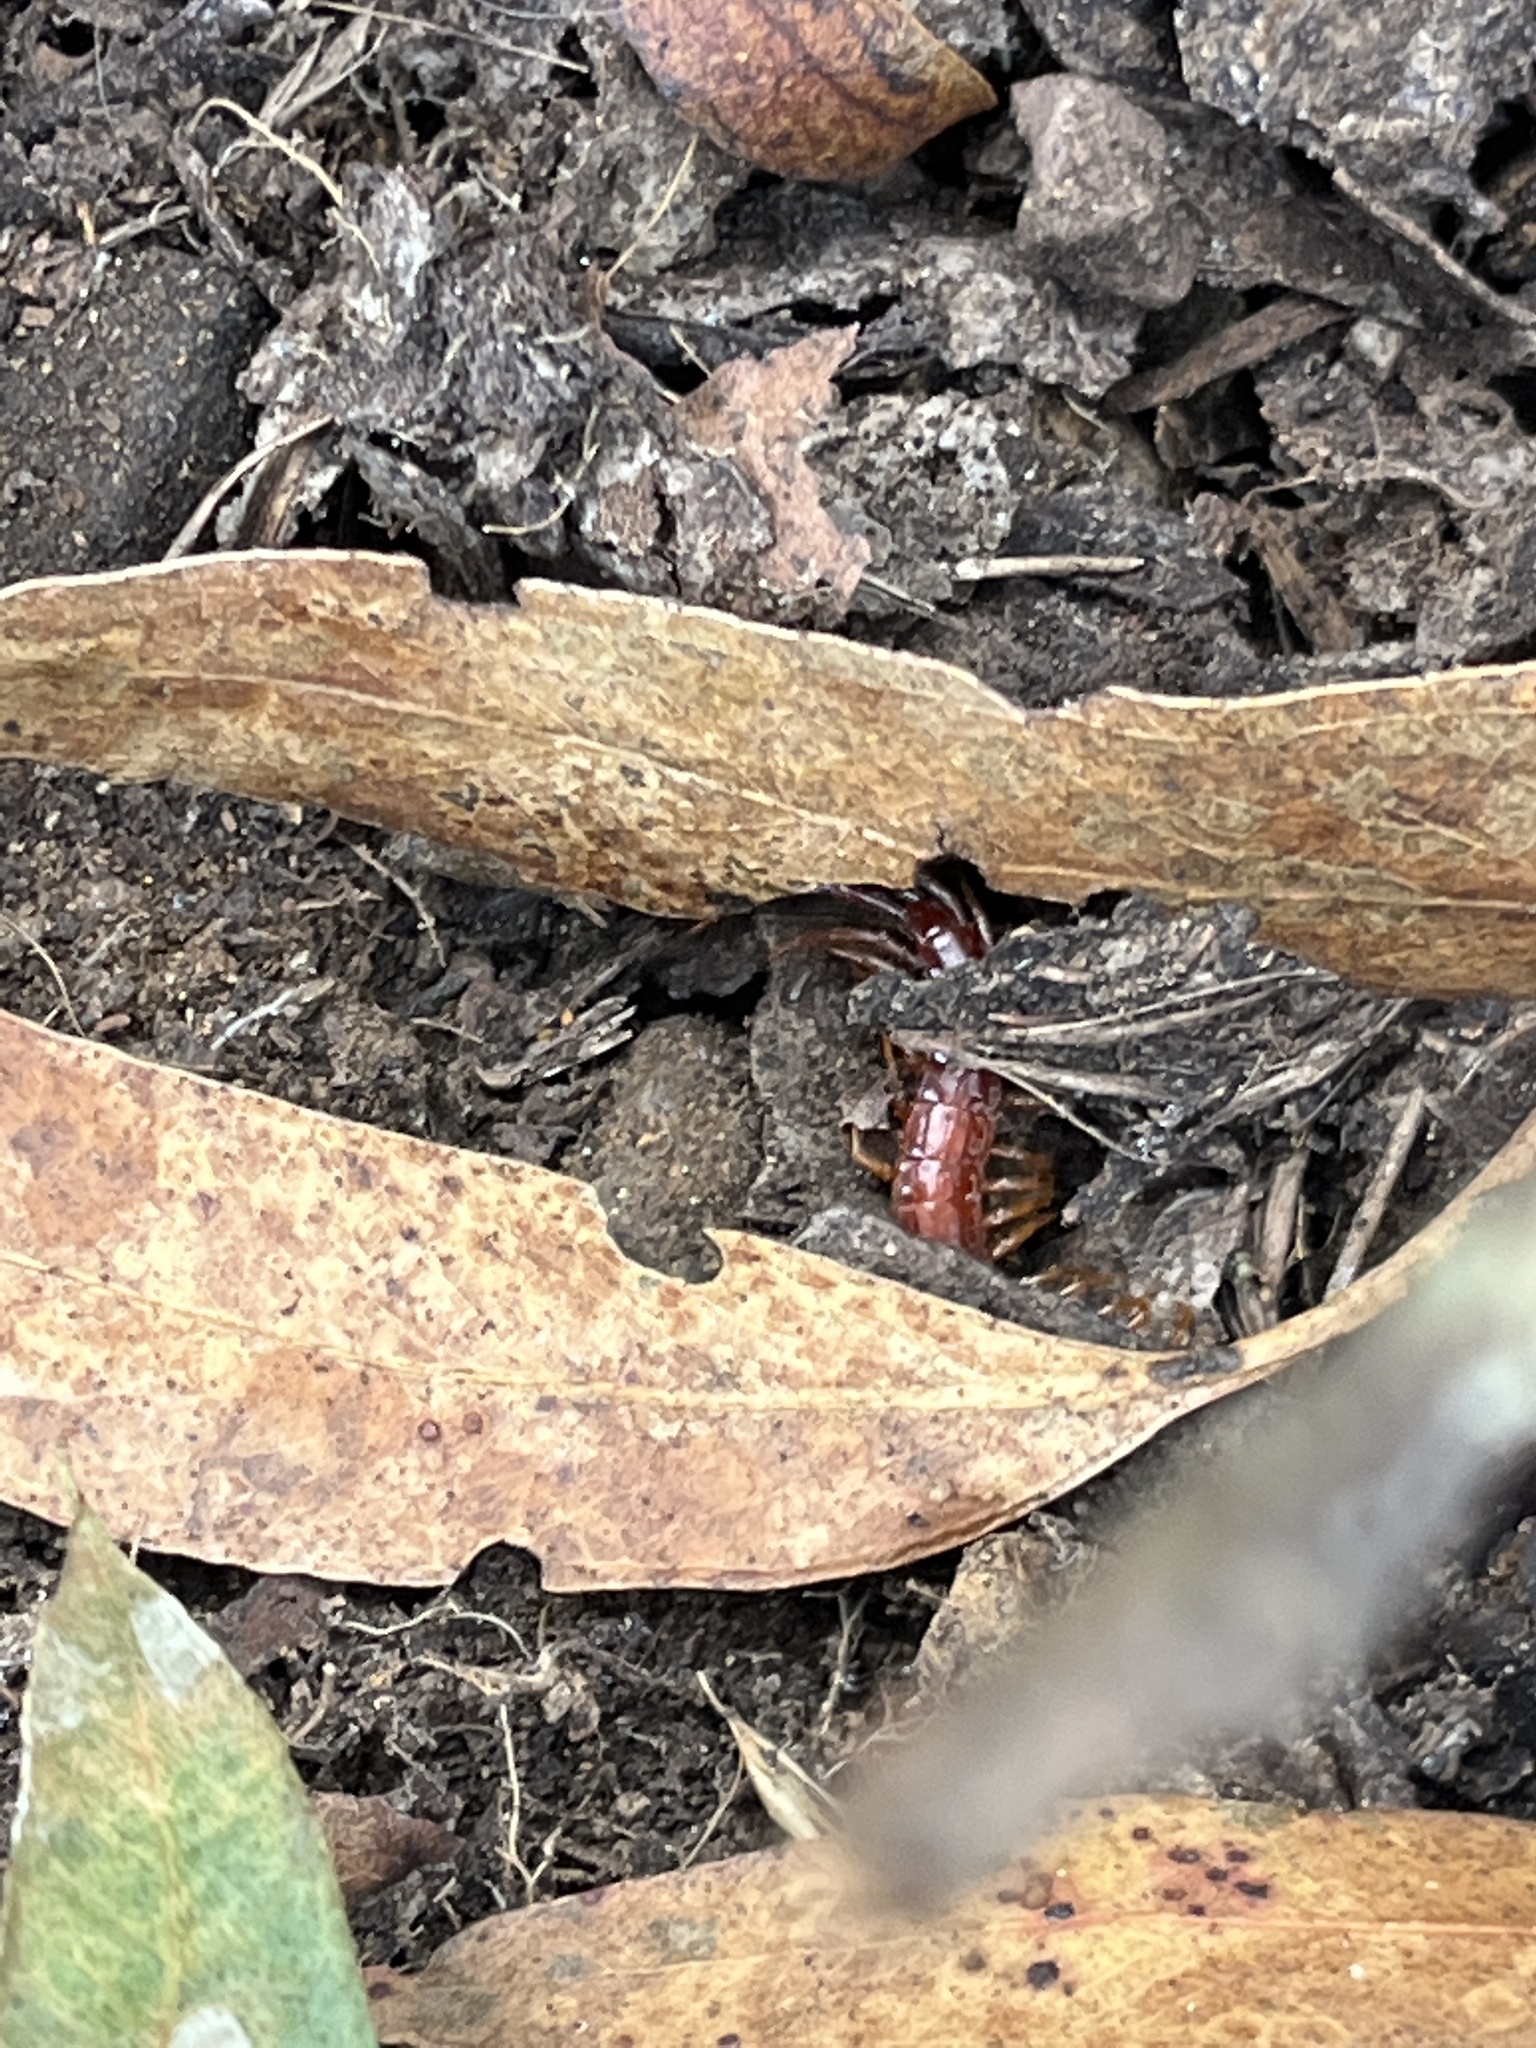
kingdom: Animalia
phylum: Arthropoda
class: Chilopoda
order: Scolopendromorpha
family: Scolopocryptopidae
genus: Scolopocryptops
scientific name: Scolopocryptops spinicaudus
